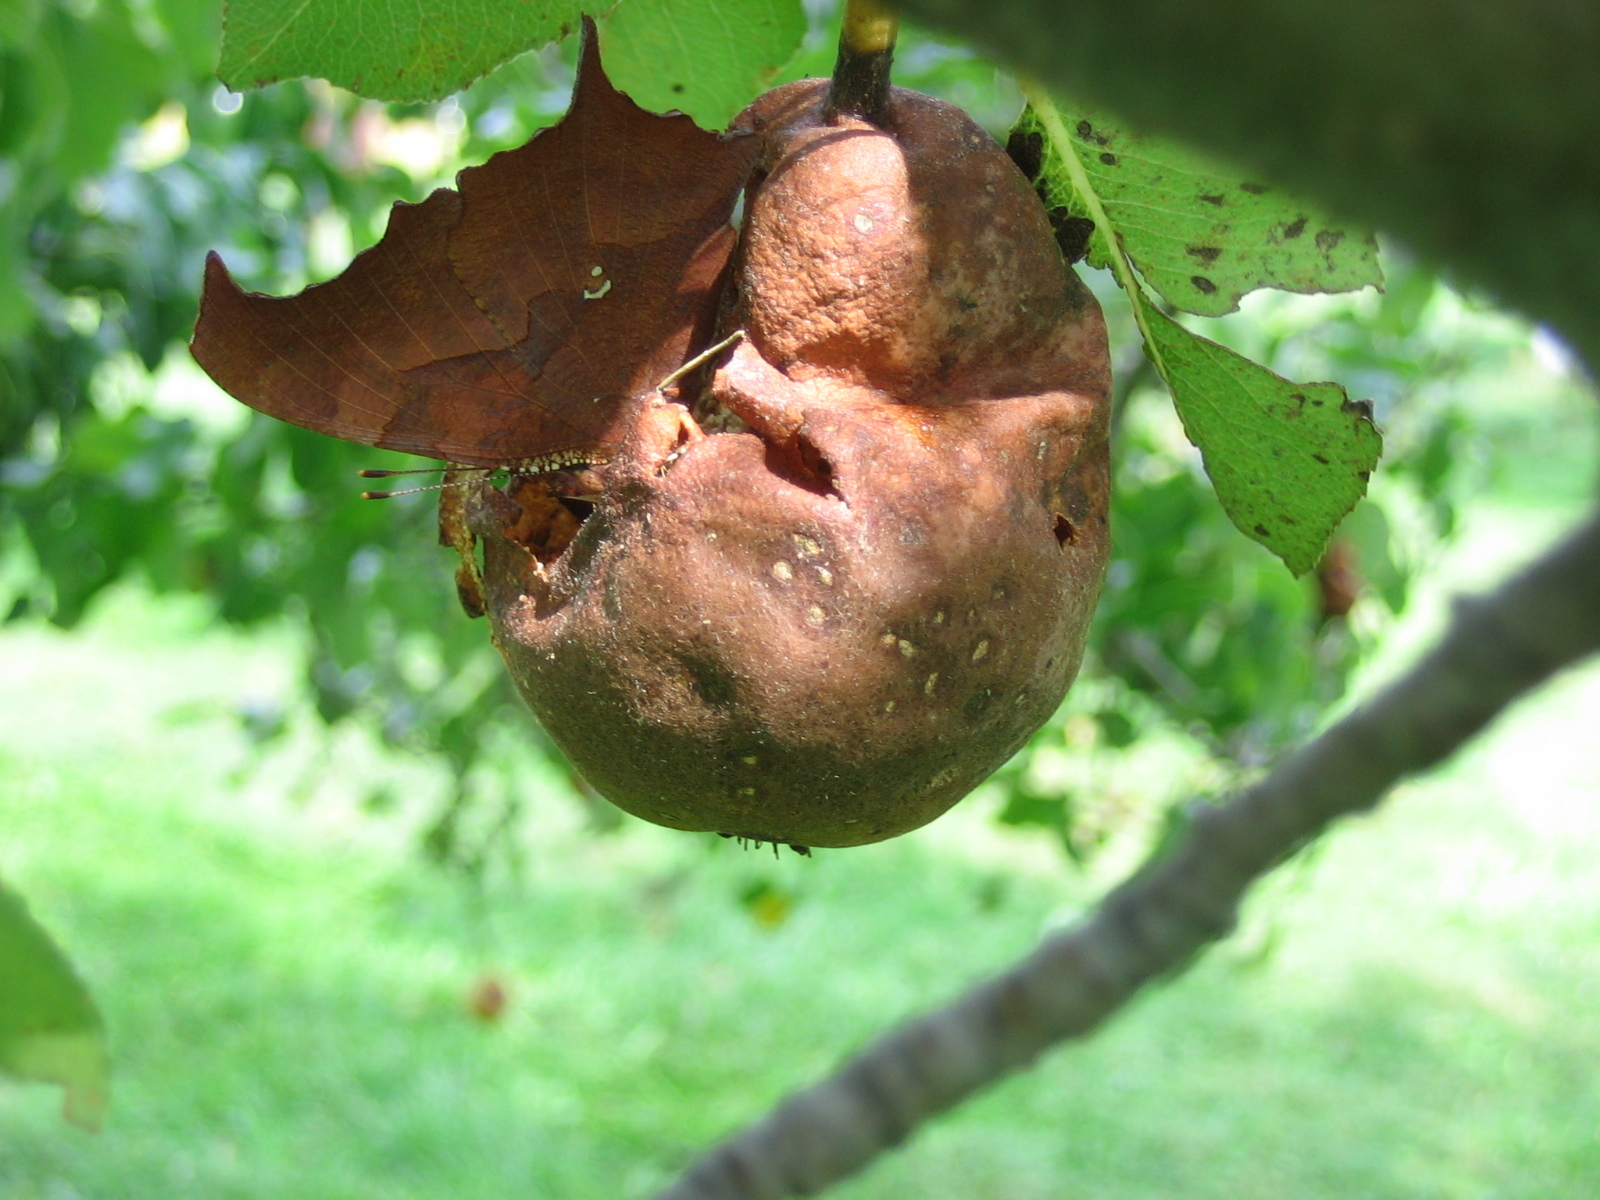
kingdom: Animalia
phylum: Arthropoda
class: Insecta
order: Lepidoptera
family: Nymphalidae
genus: Polygonia
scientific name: Polygonia interrogationis
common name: Question mark
